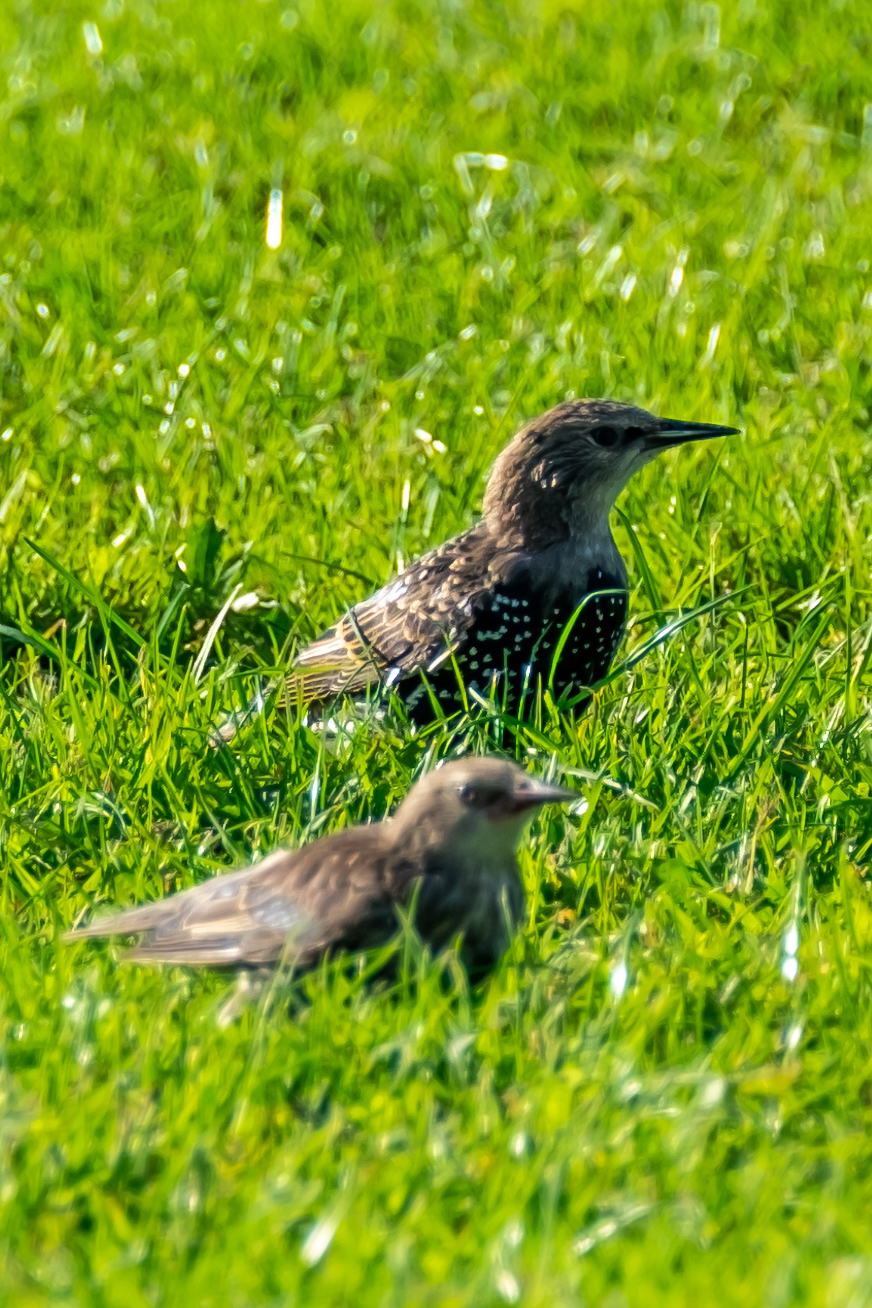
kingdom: Animalia
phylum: Chordata
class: Aves
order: Passeriformes
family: Sturnidae
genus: Sturnus
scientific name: Sturnus vulgaris
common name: Common starling
